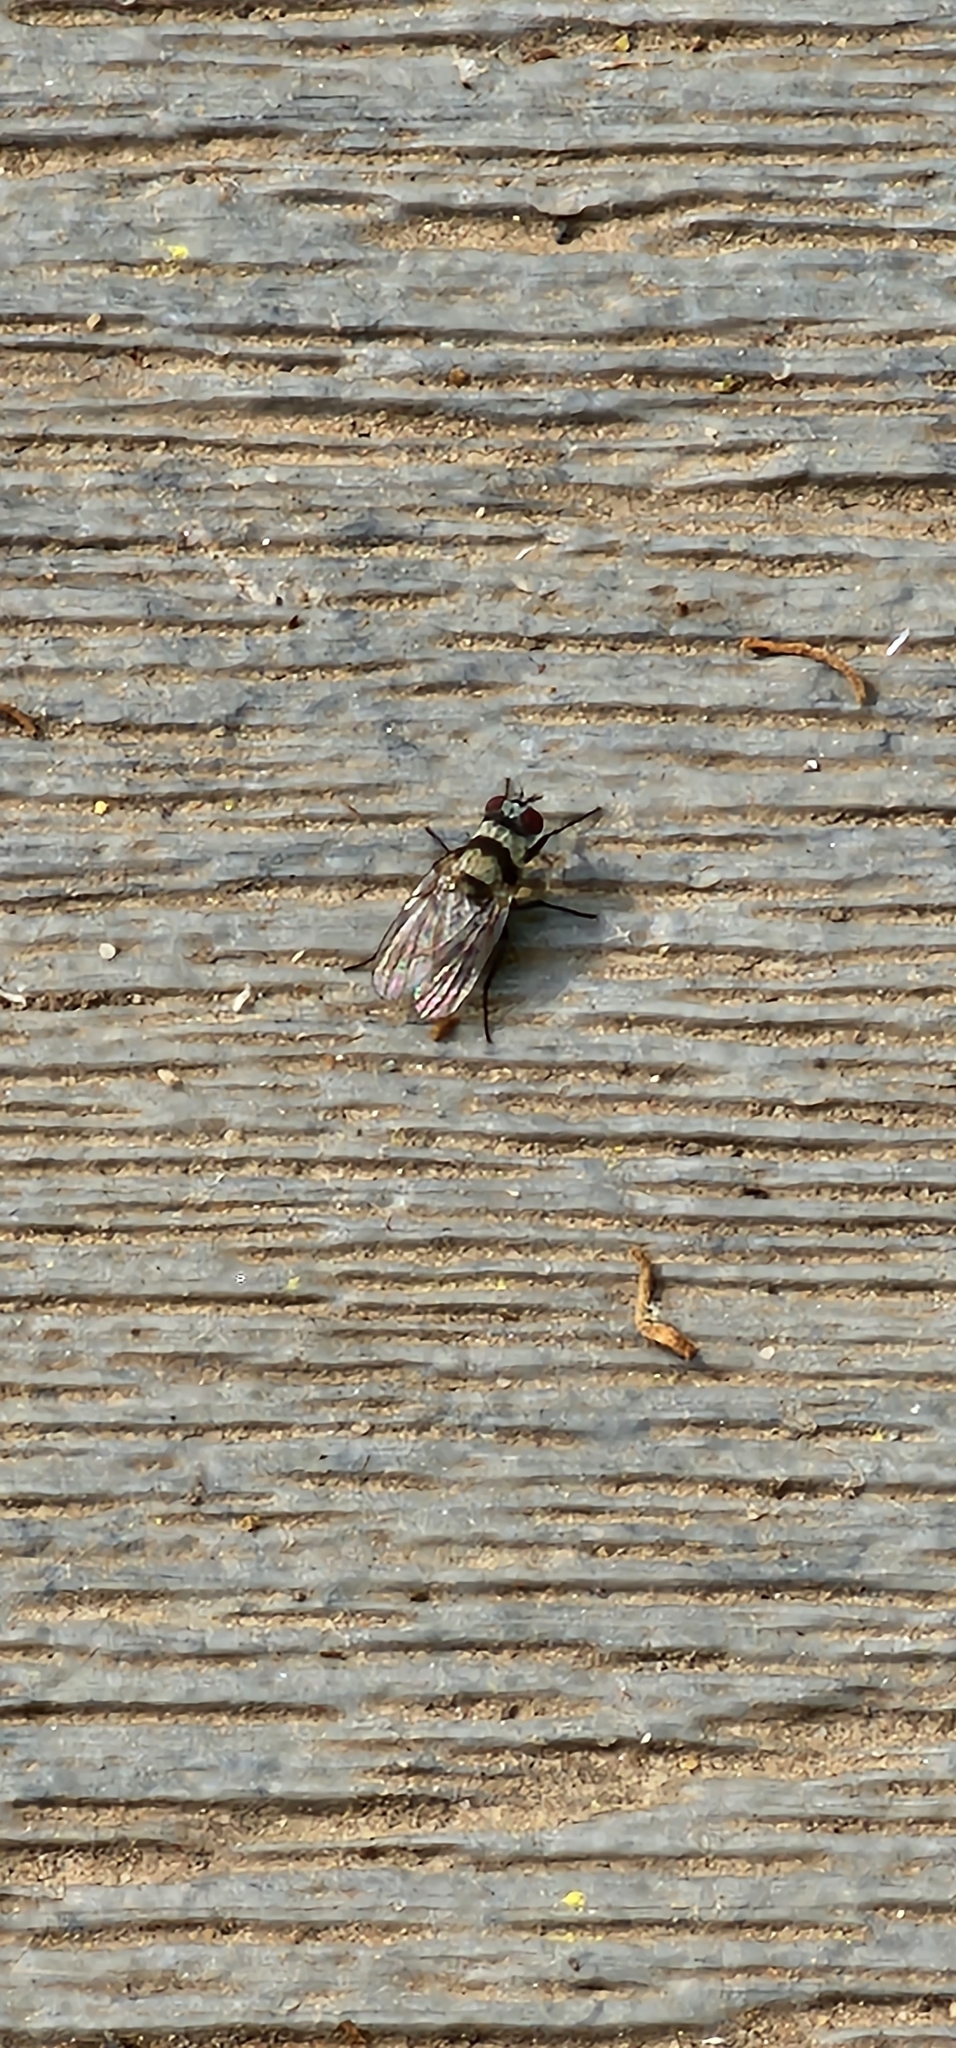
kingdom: Animalia
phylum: Arthropoda
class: Insecta
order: Diptera
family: Anthomyiidae
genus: Anthomyia
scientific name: Anthomyia illocata
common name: Fly
